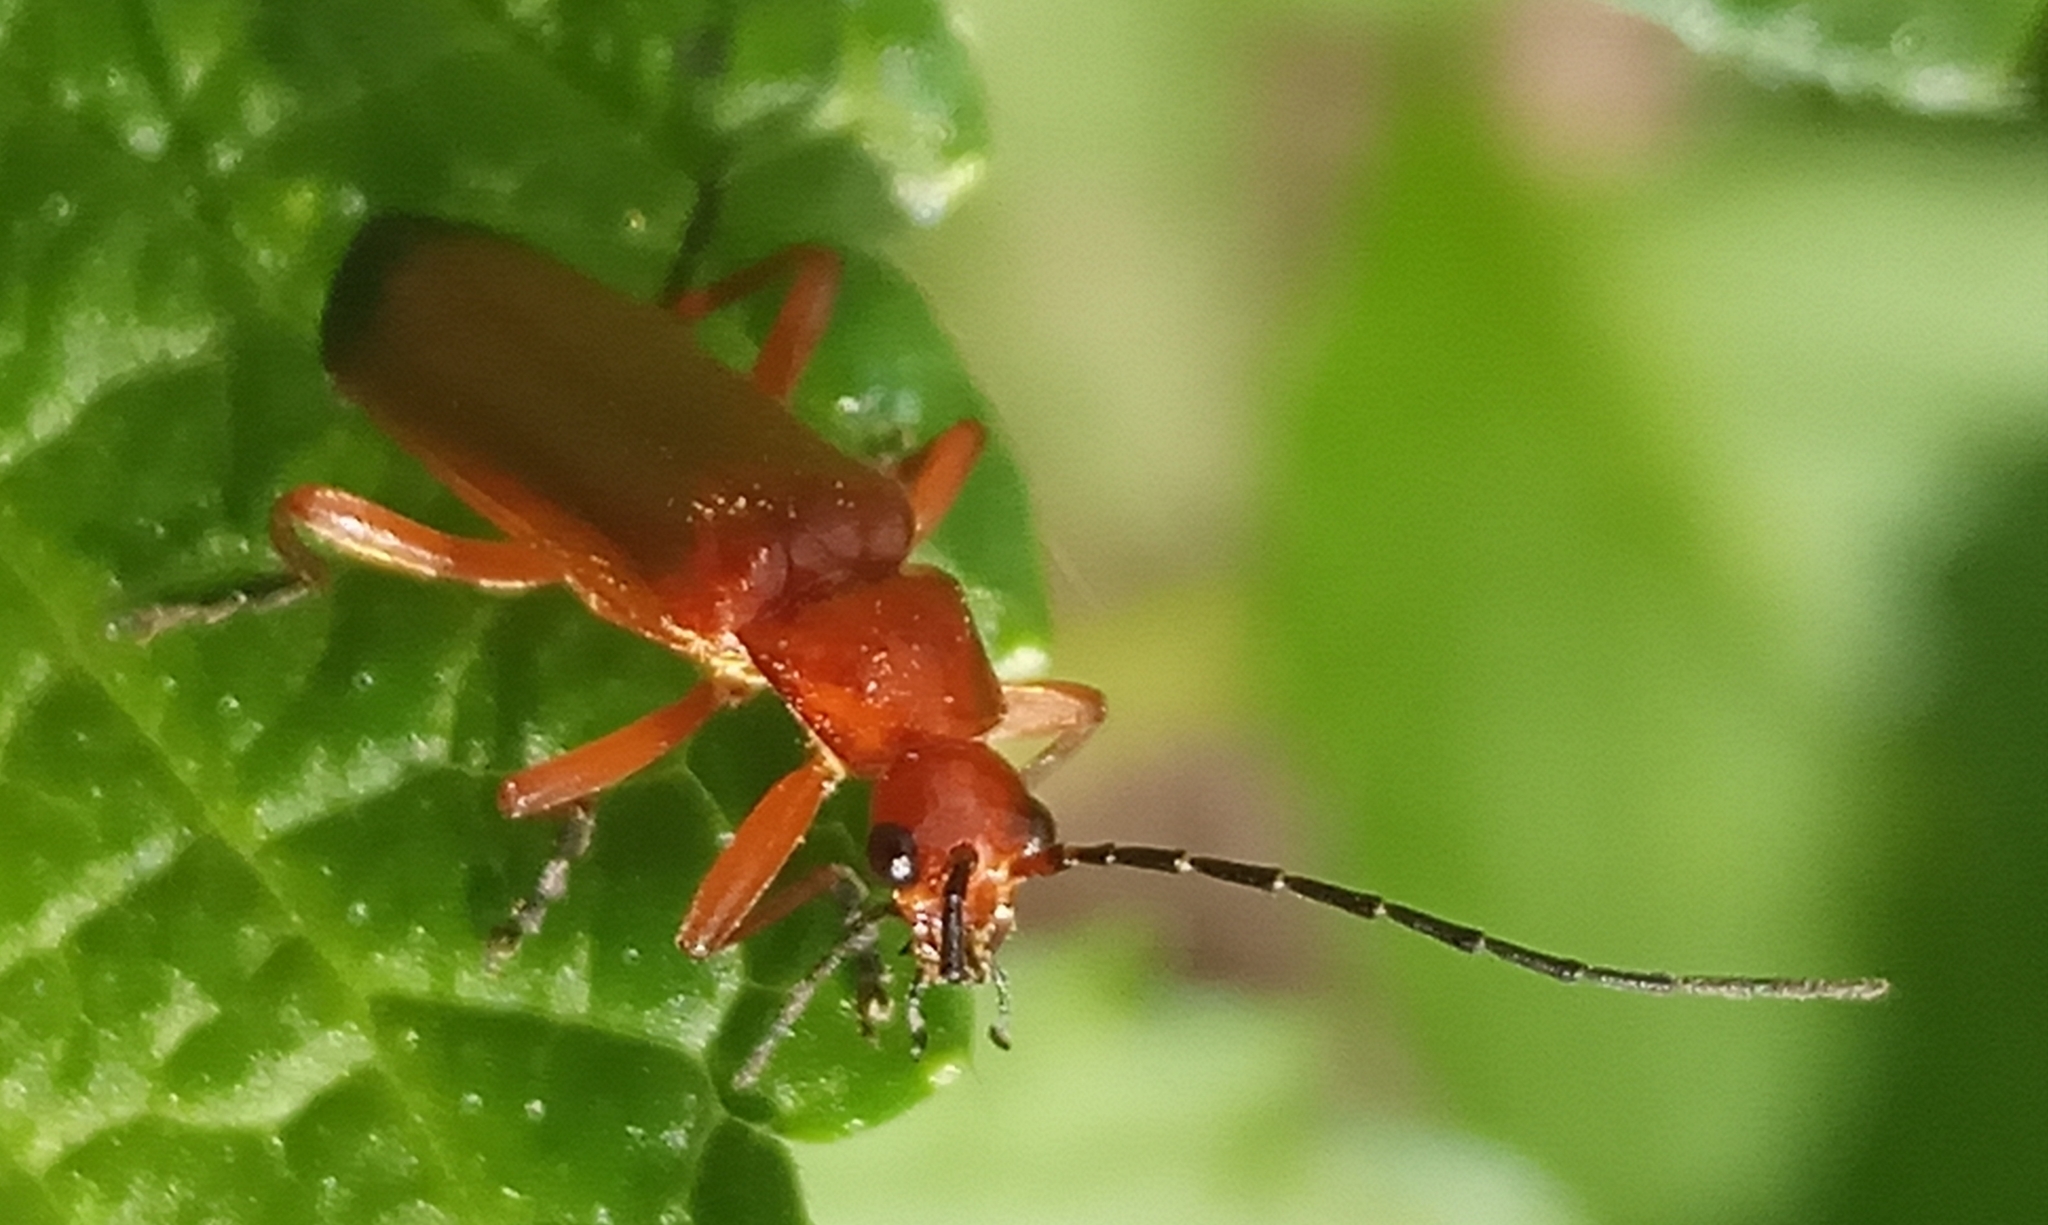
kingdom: Animalia
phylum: Arthropoda
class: Insecta
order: Coleoptera
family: Cantharidae
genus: Rhagonycha
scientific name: Rhagonycha fulva
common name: Common red soldier beetle
